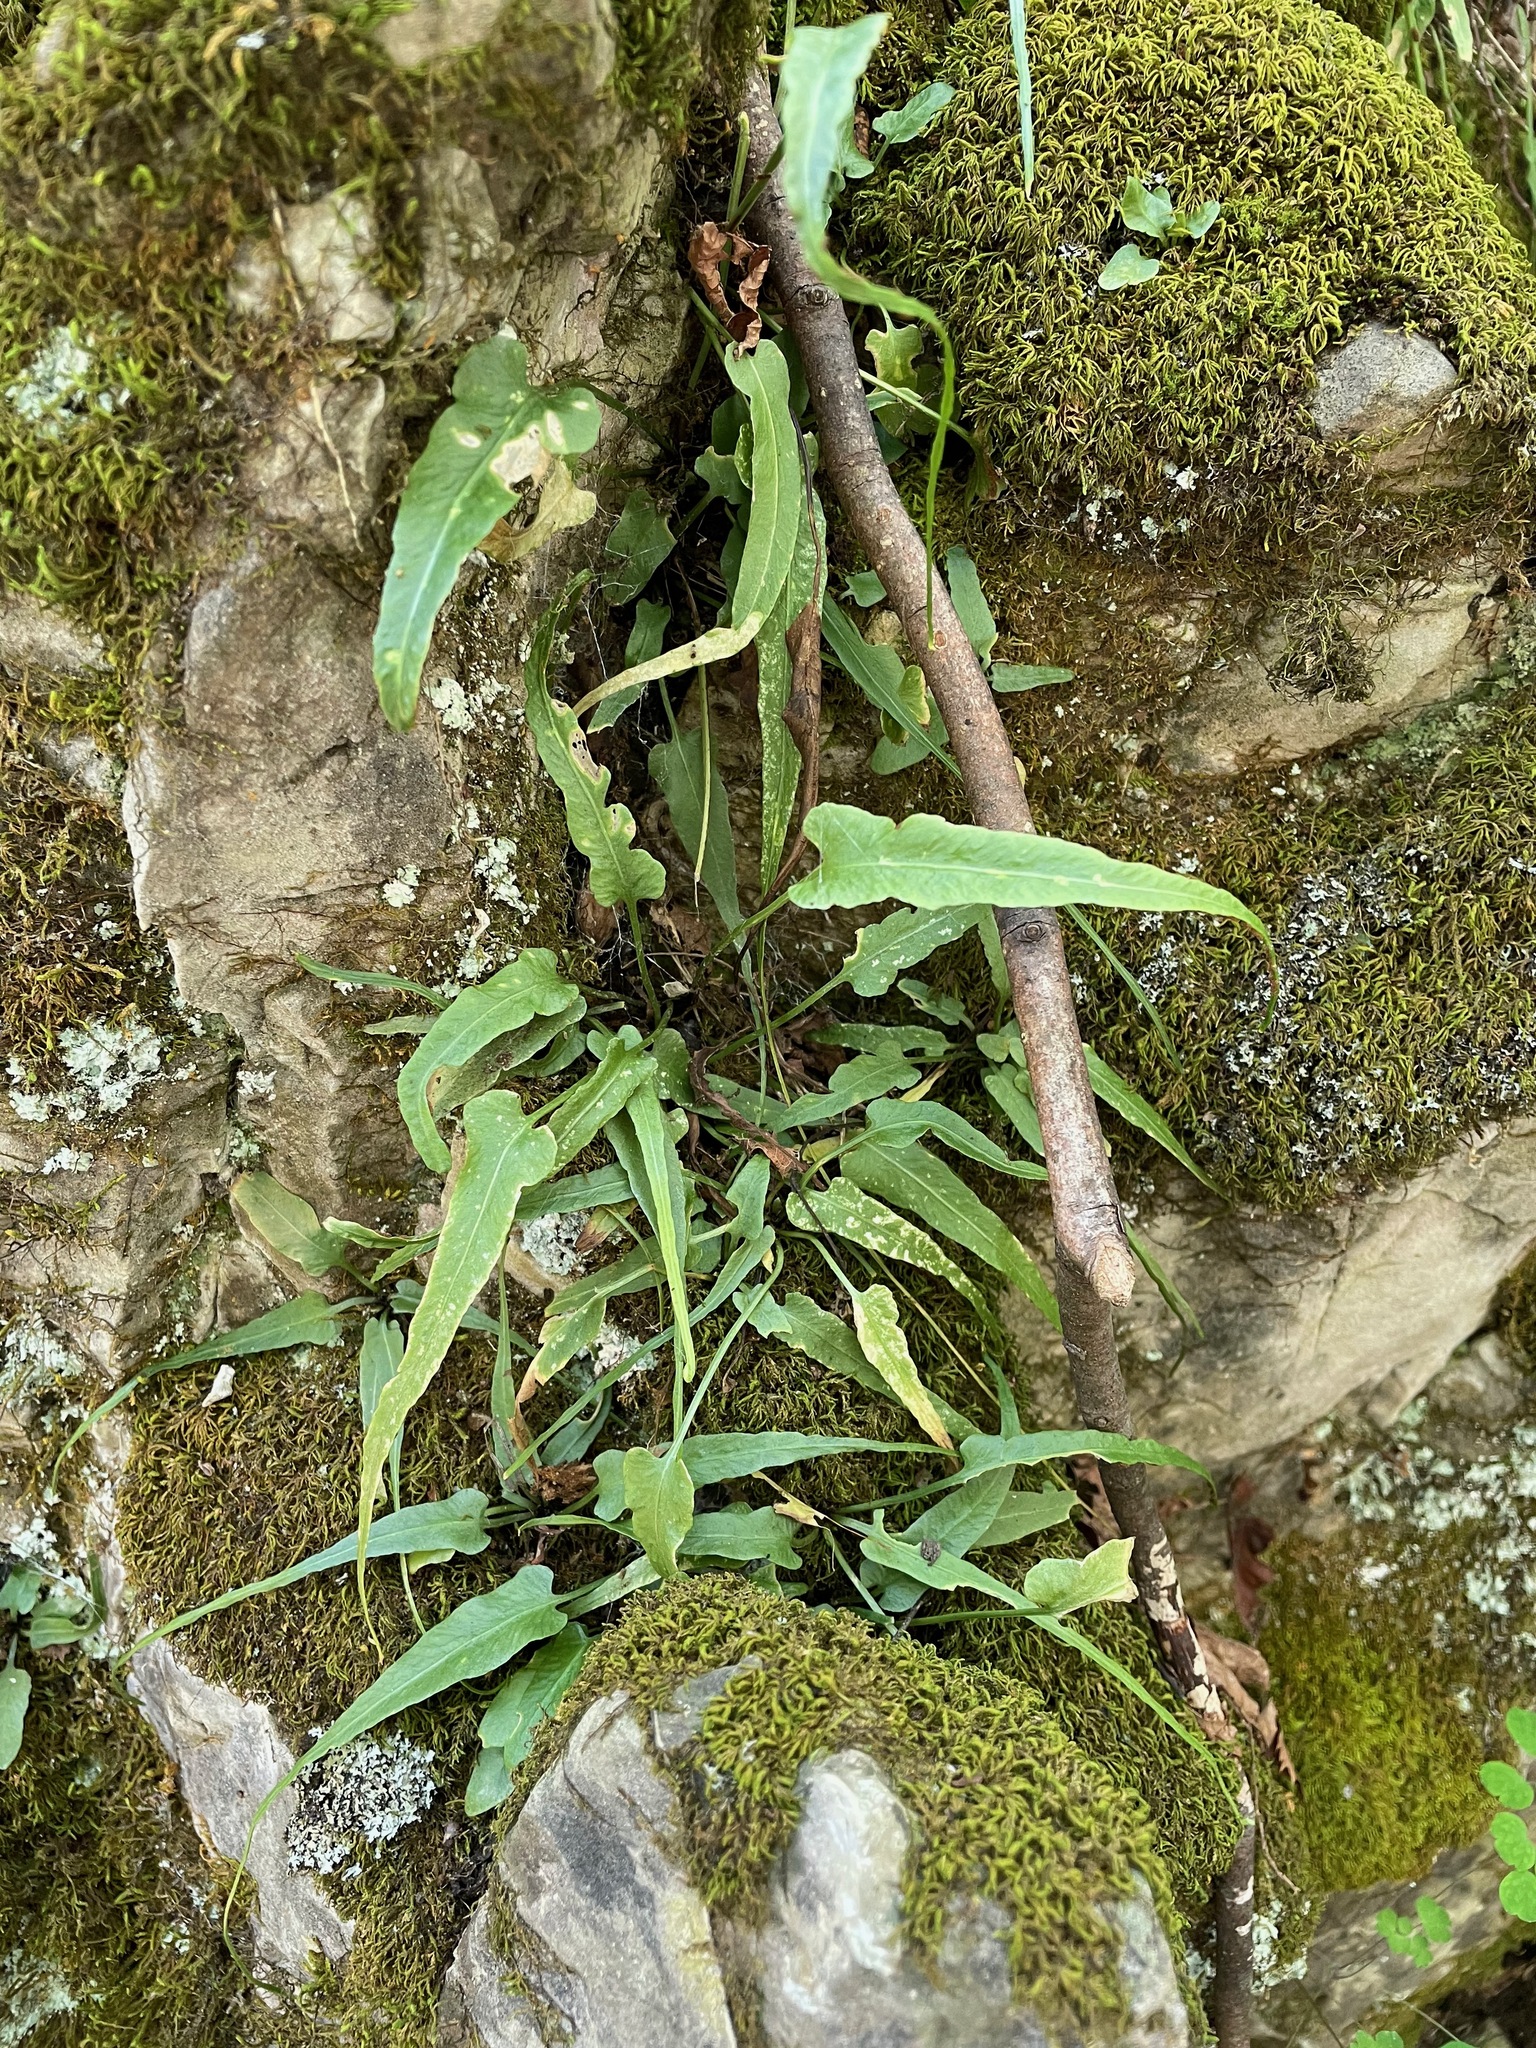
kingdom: Plantae
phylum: Tracheophyta
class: Polypodiopsida
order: Polypodiales
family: Aspleniaceae
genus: Asplenium
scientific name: Asplenium rhizophyllum
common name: Walking fern
